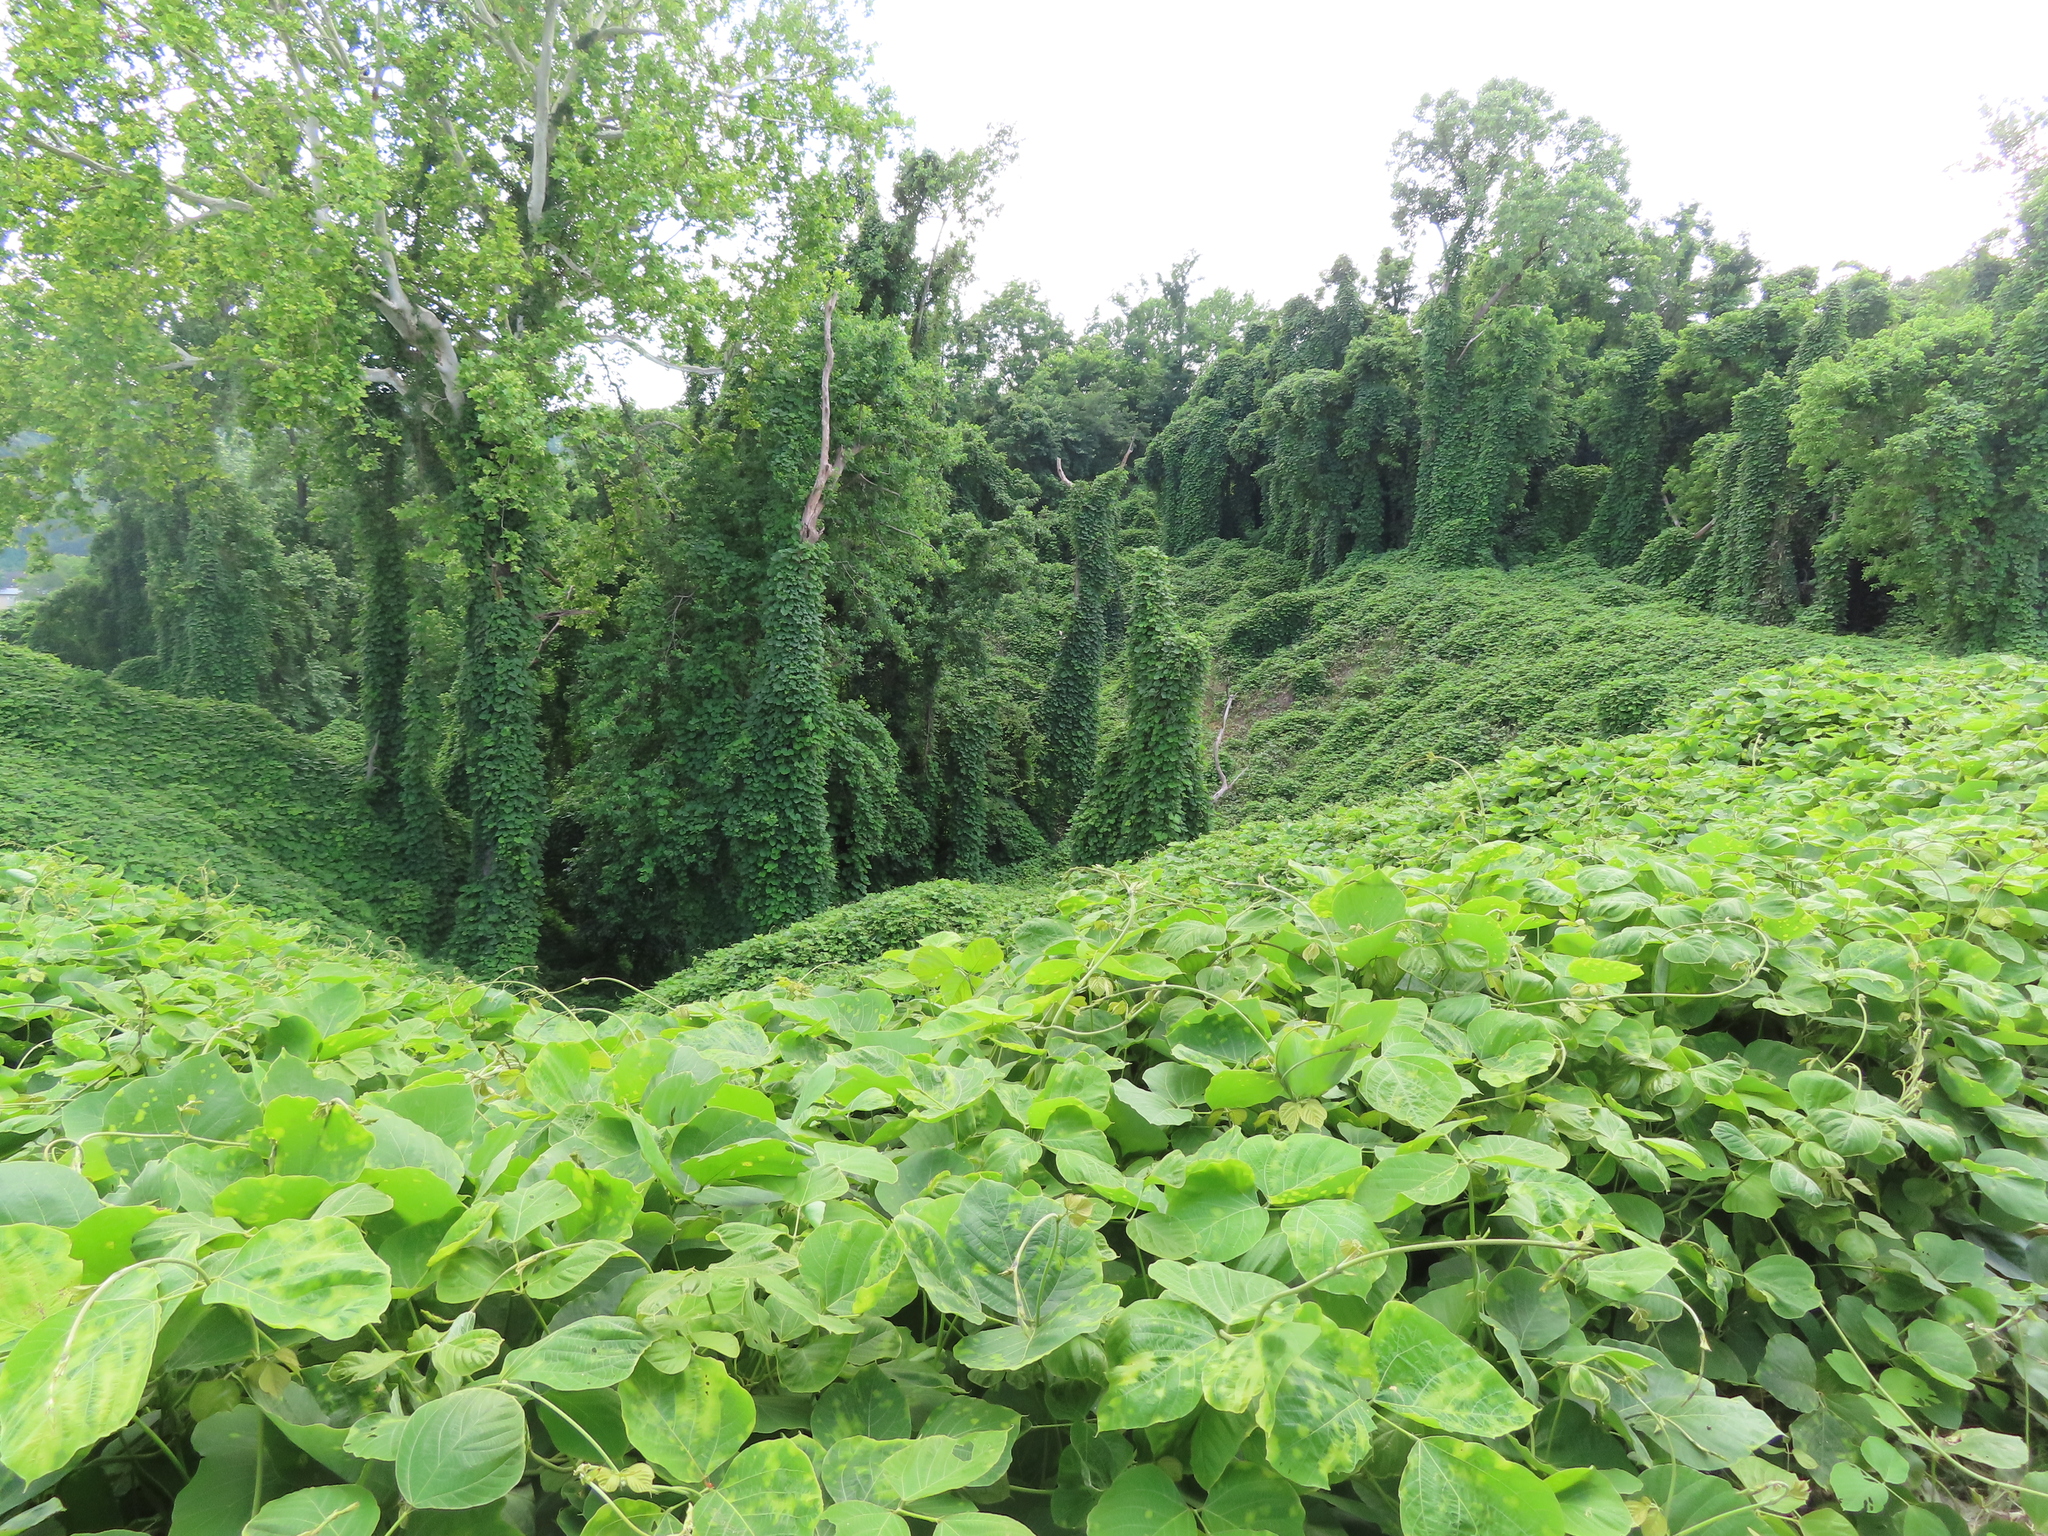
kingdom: Plantae
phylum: Tracheophyta
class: Magnoliopsida
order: Fabales
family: Fabaceae
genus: Pueraria
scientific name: Pueraria montana
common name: Kudzu
